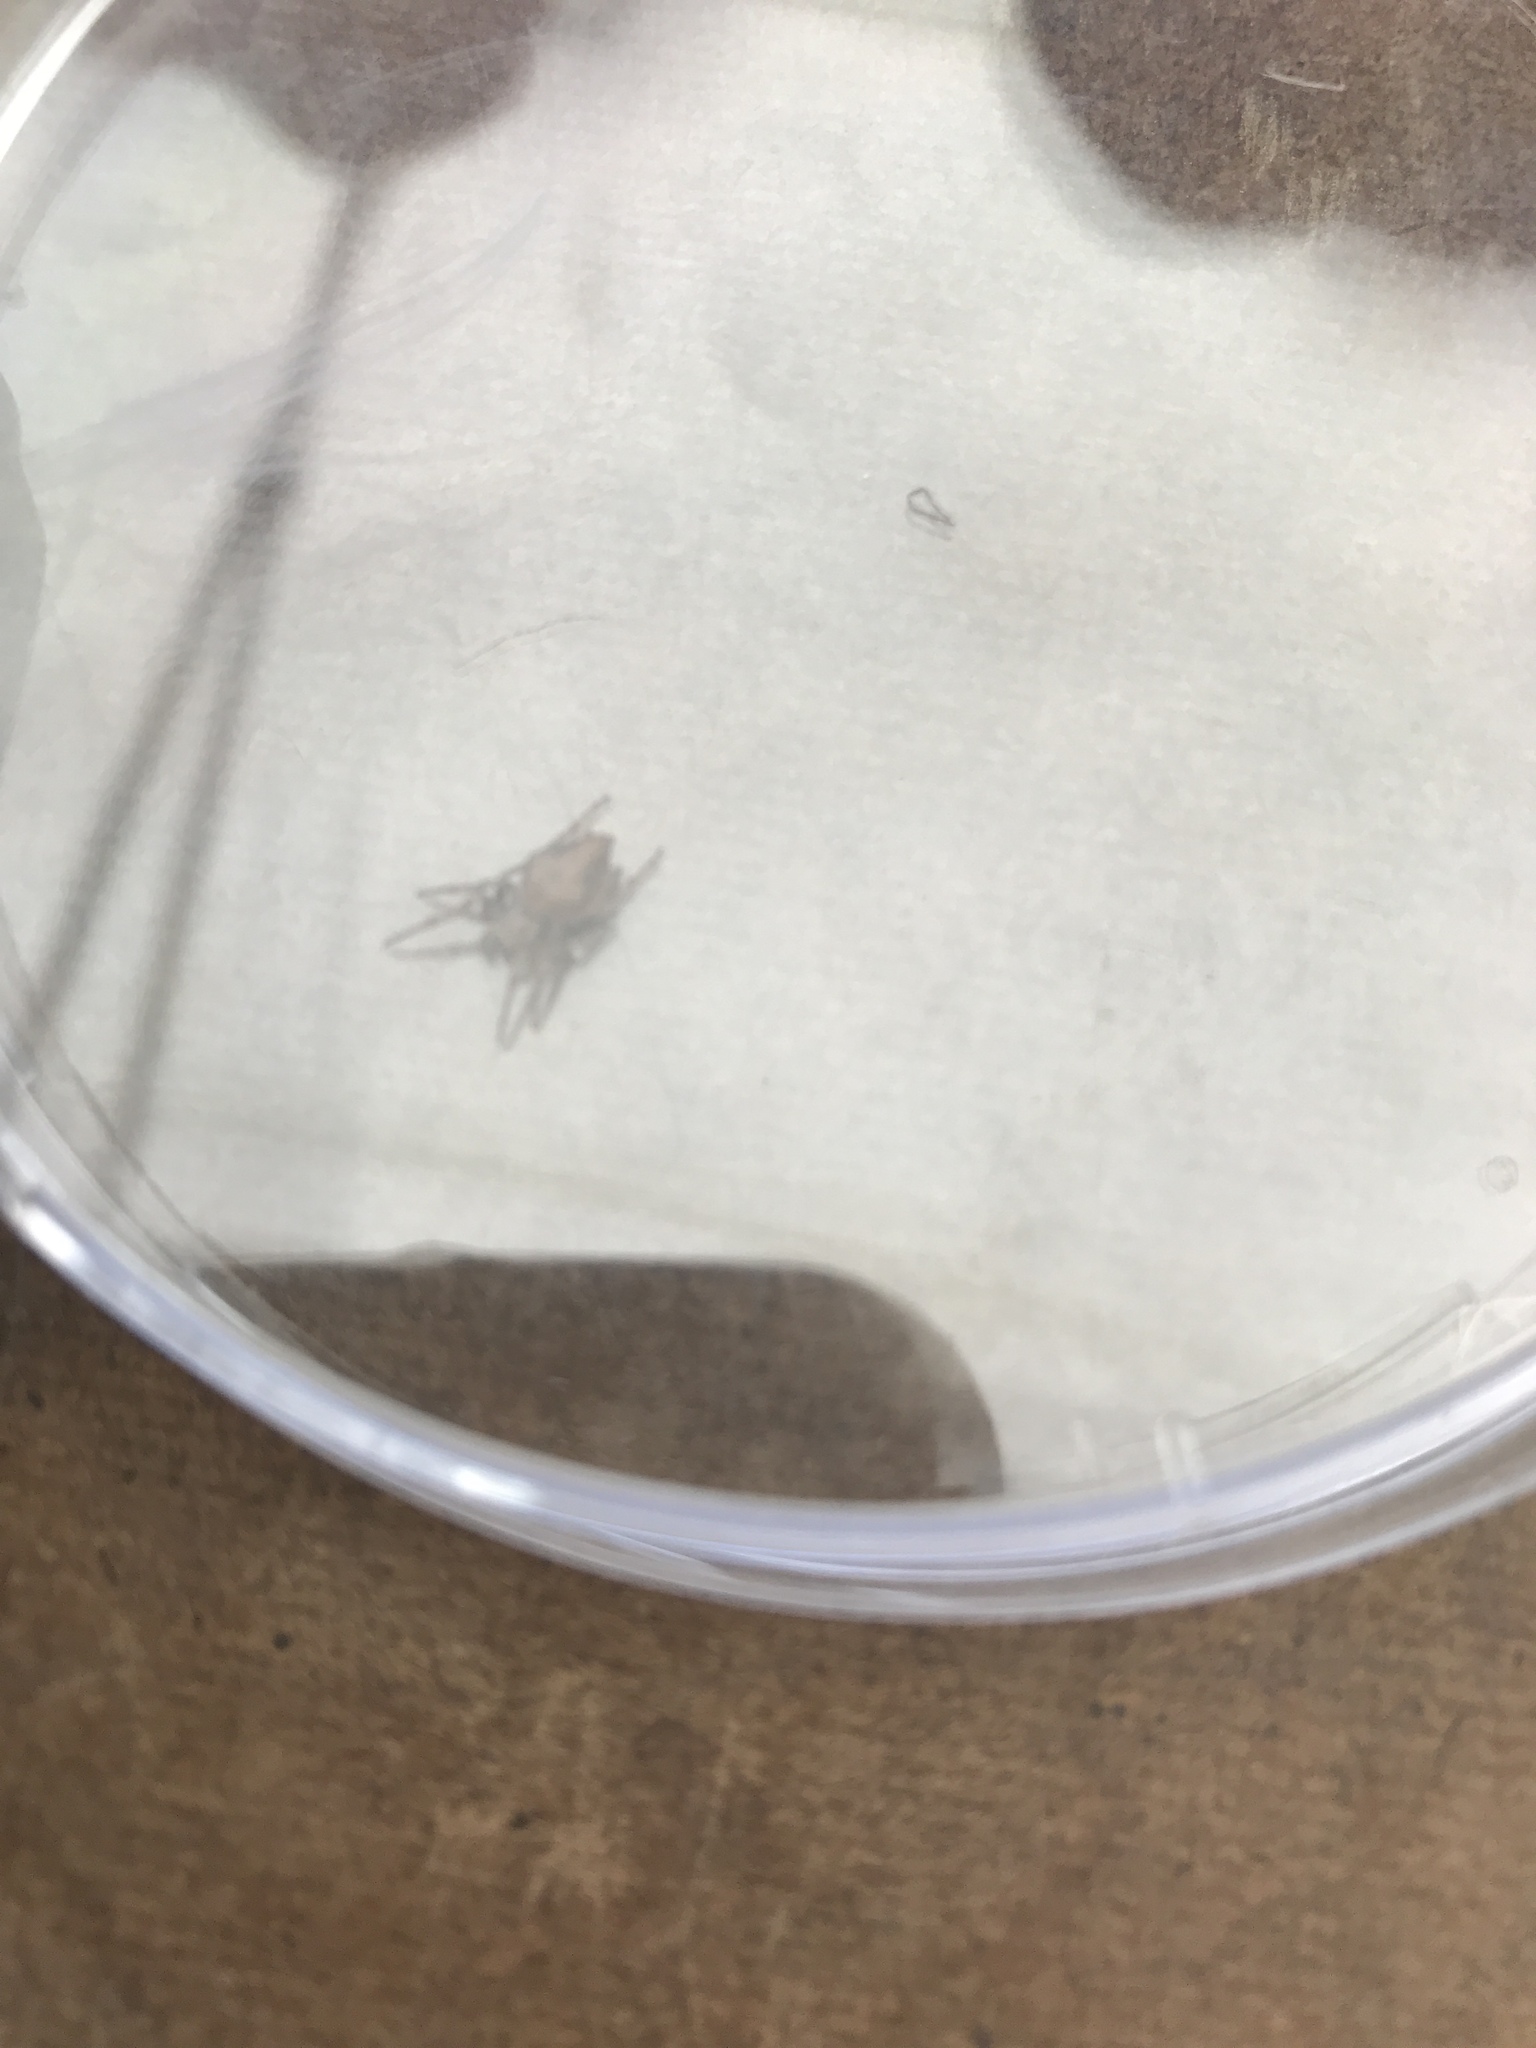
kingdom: Animalia
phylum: Arthropoda
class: Arachnida
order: Araneae
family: Araneidae
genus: Eriophora
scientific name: Eriophora pustulosa
